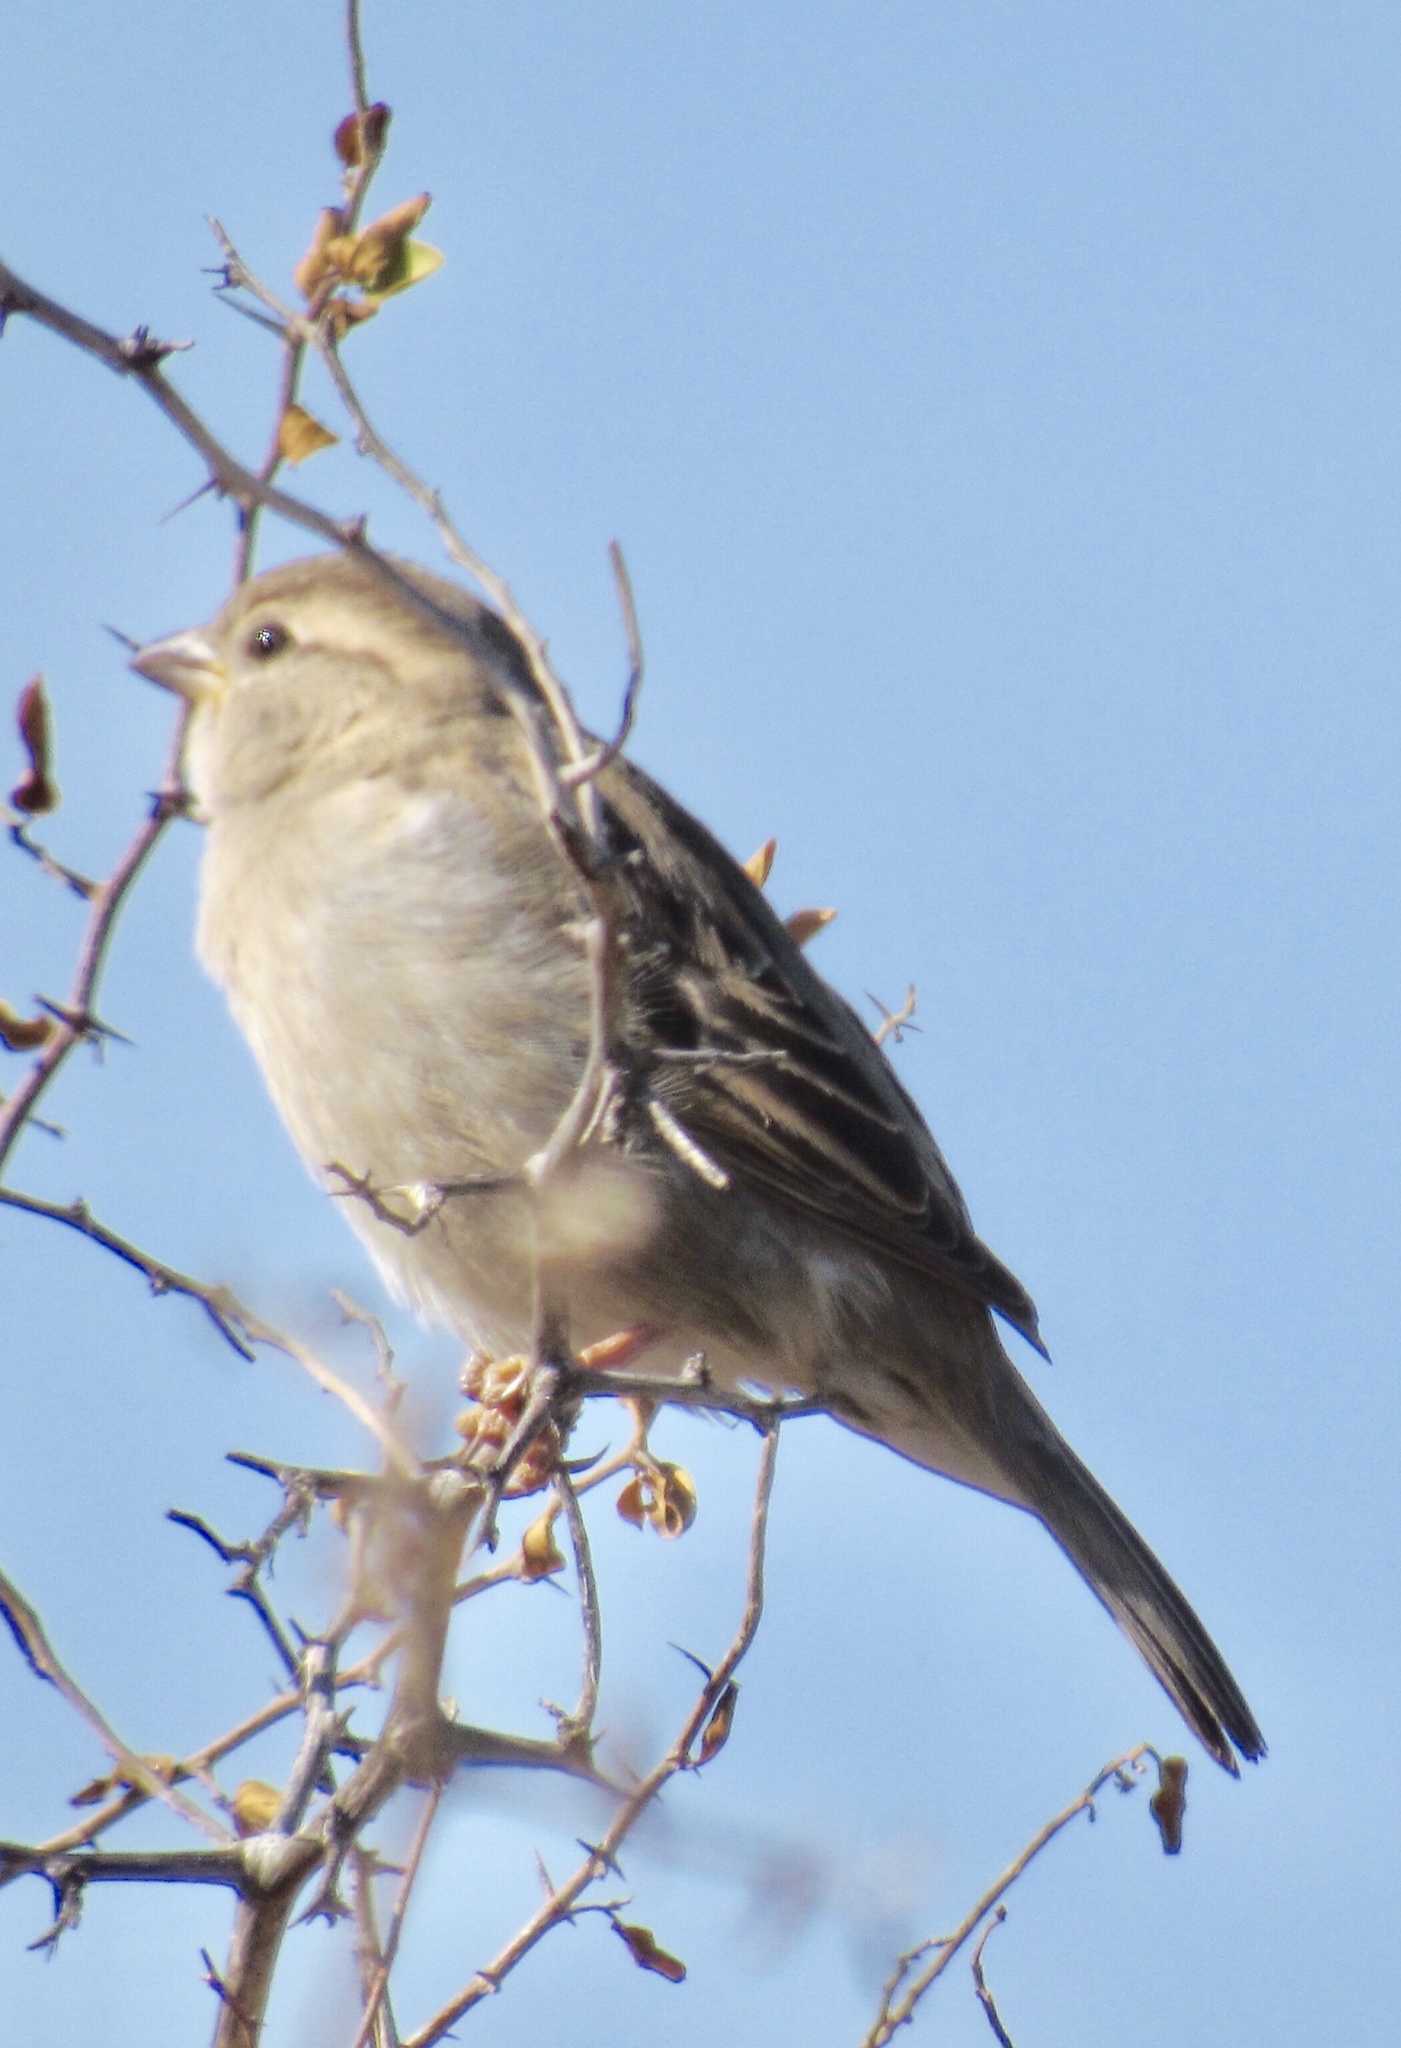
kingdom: Animalia
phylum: Chordata
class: Aves
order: Passeriformes
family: Passeridae
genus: Passer
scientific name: Passer domesticus
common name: House sparrow
